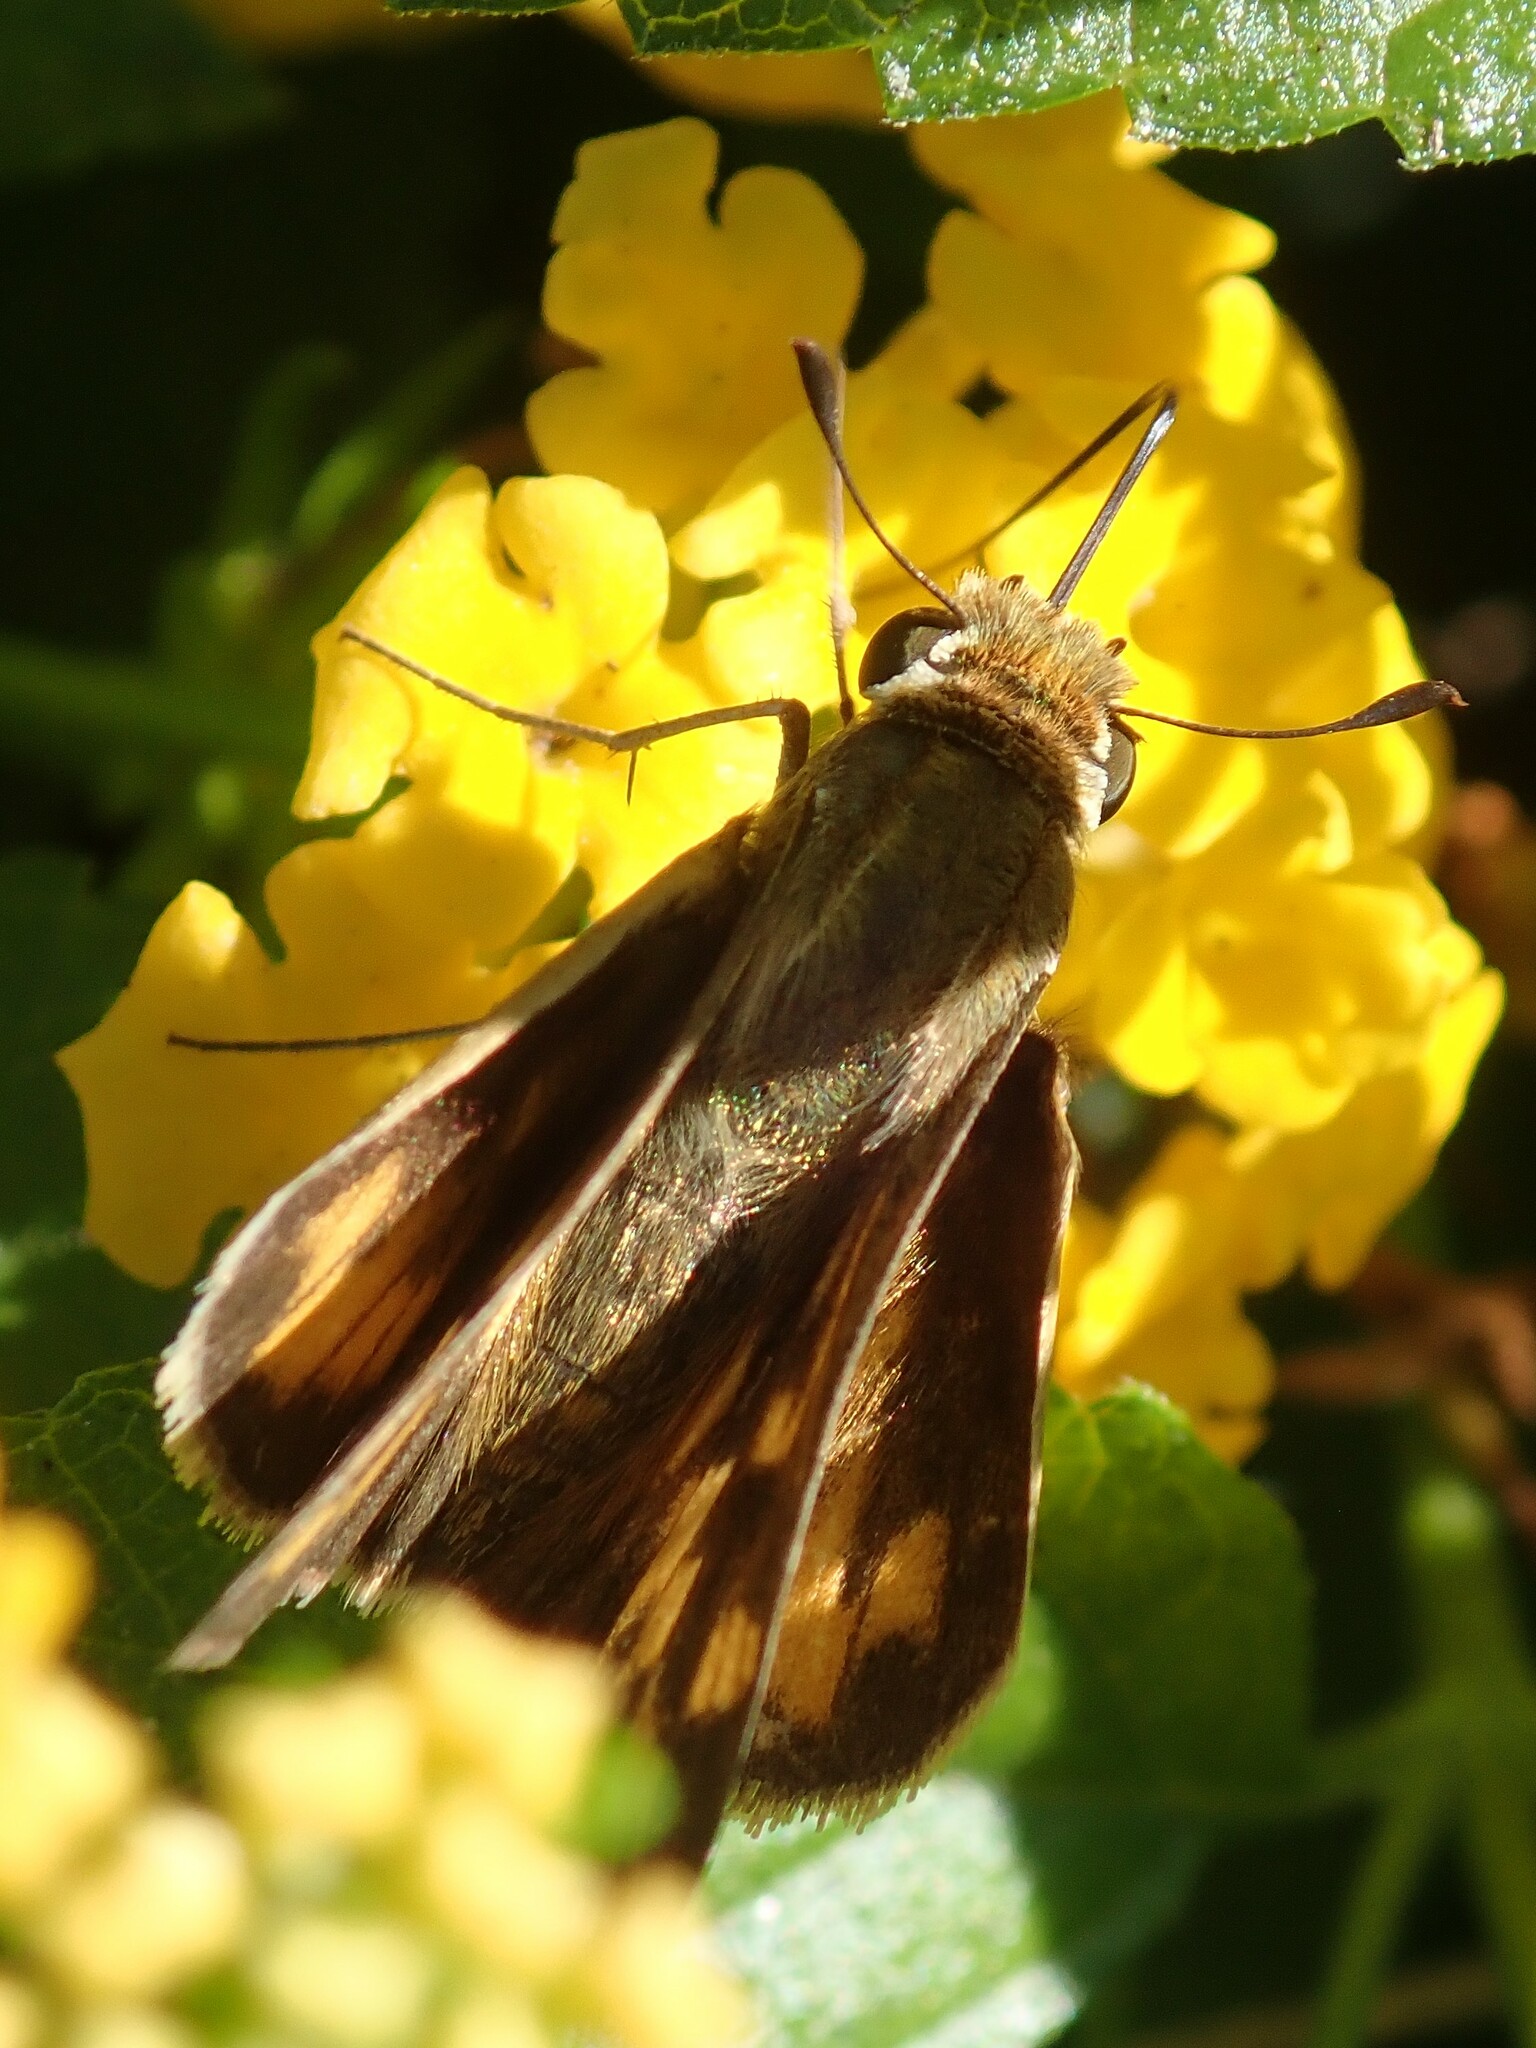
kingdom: Animalia
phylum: Arthropoda
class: Insecta
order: Lepidoptera
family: Hesperiidae
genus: Hylephila
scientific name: Hylephila phyleus
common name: Fiery skipper
